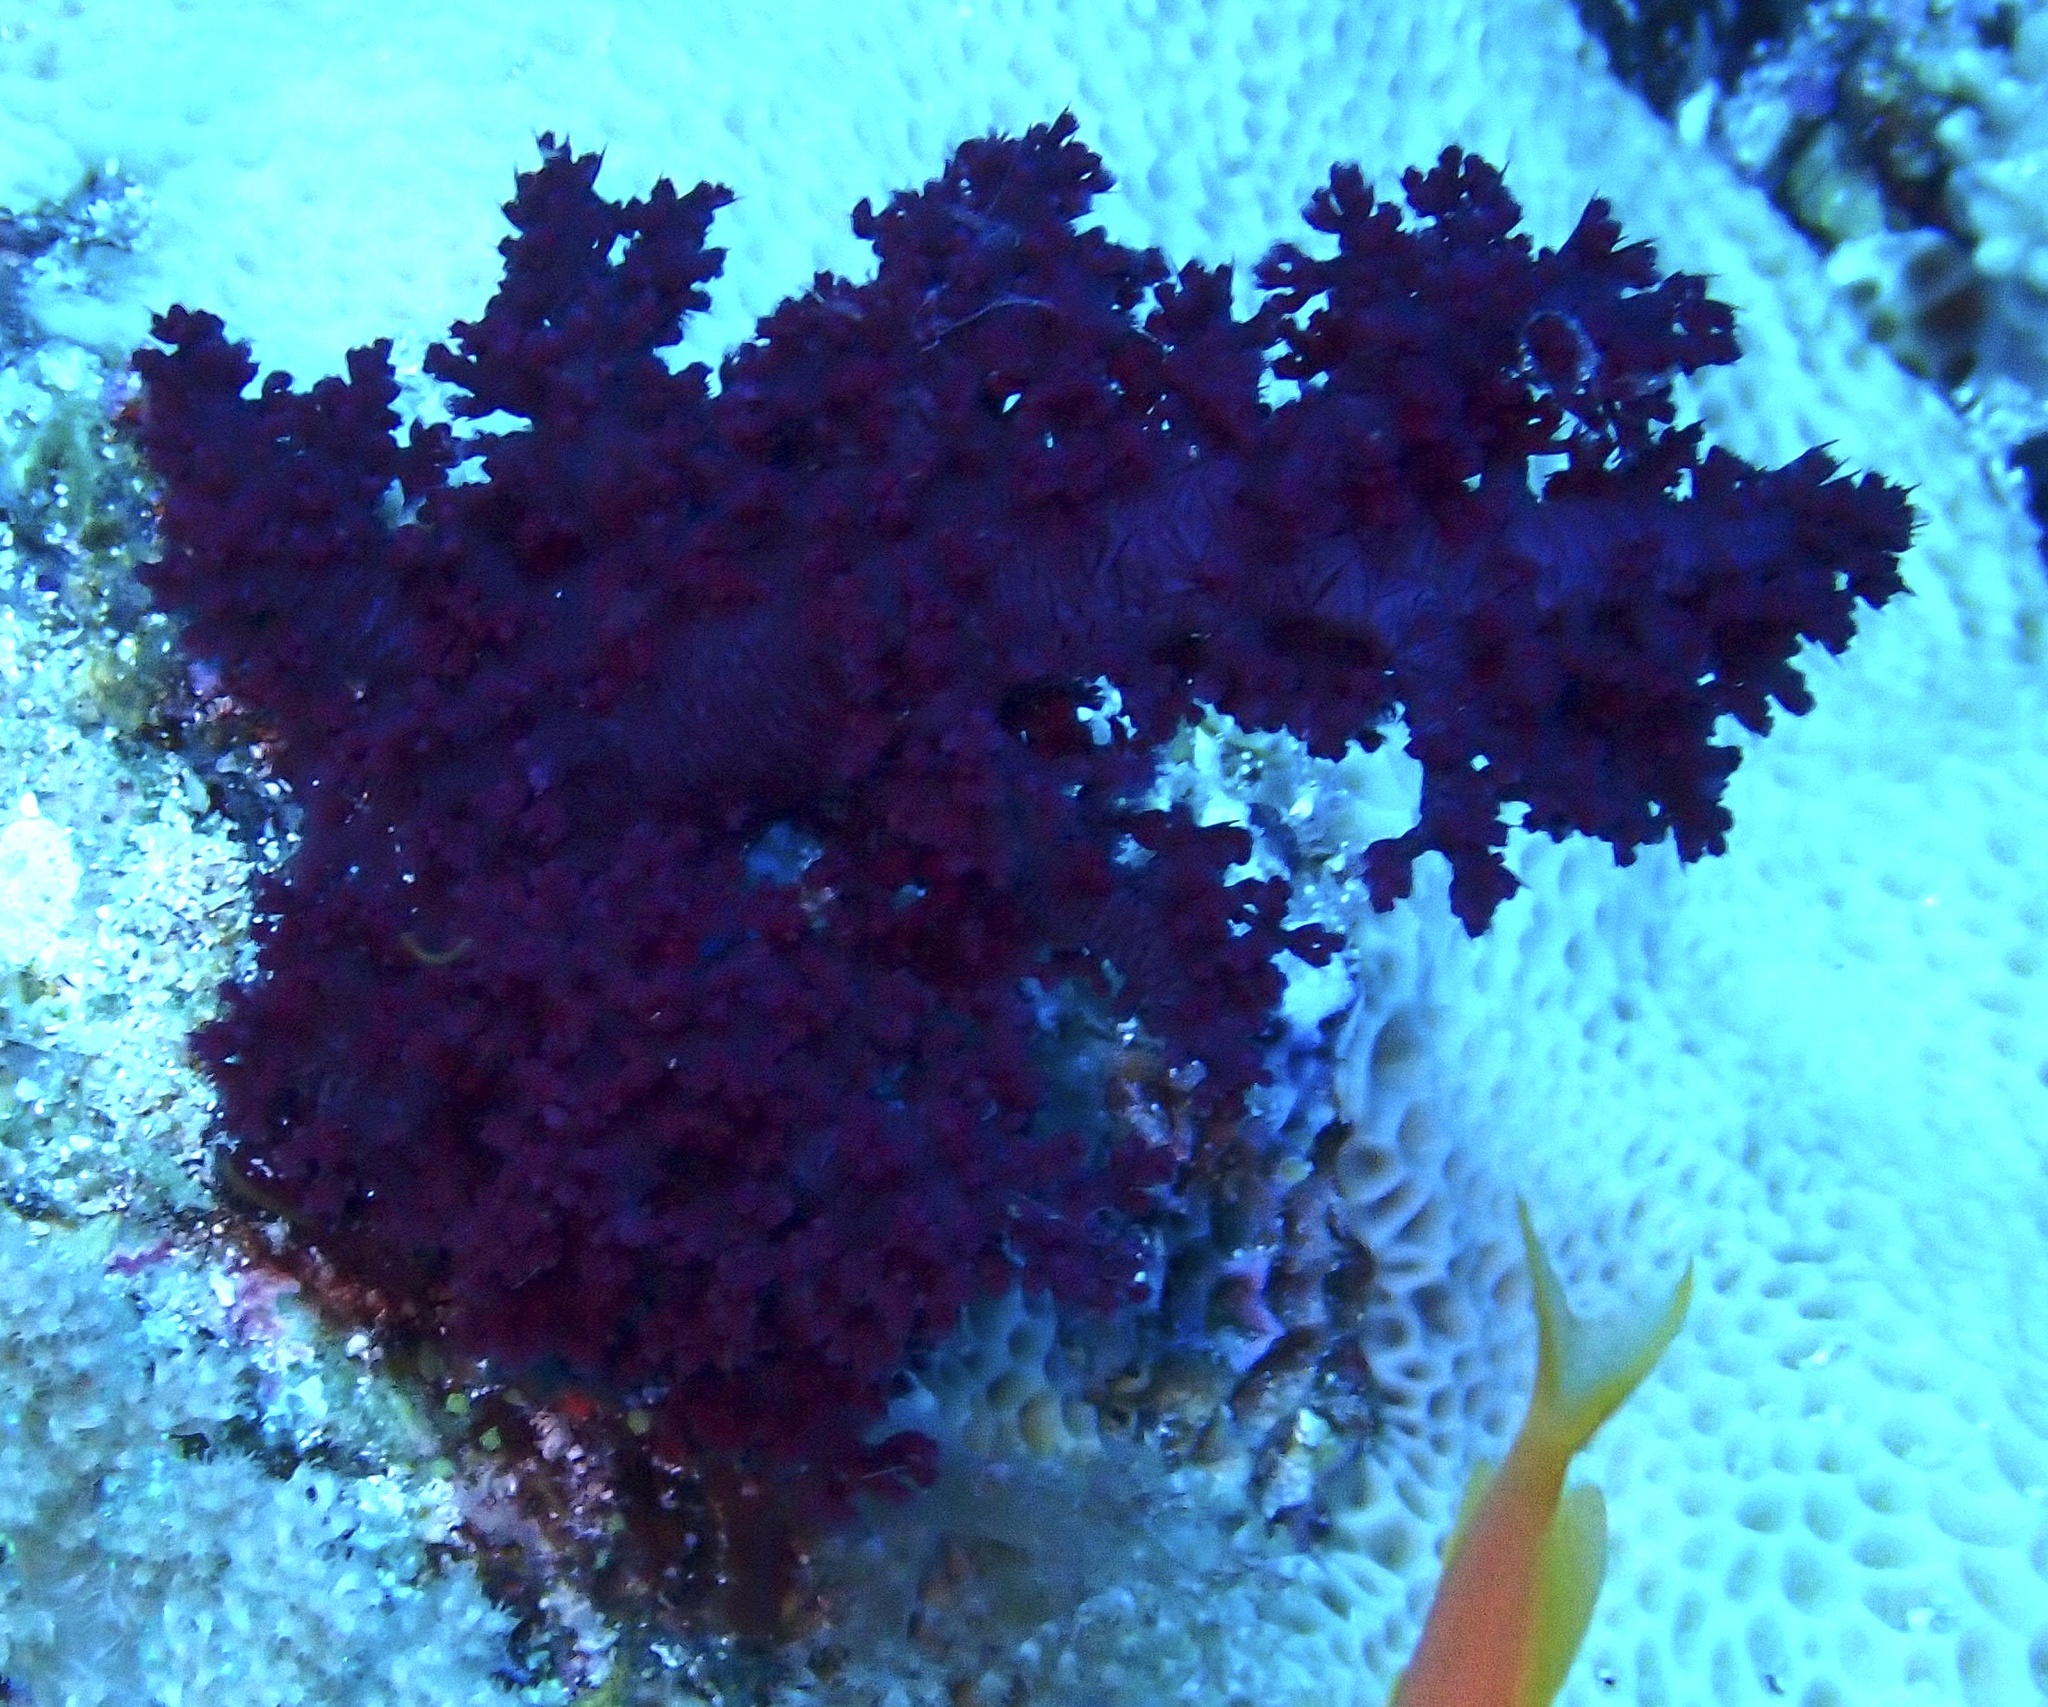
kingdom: Animalia
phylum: Cnidaria
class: Anthozoa
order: Malacalcyonacea
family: Nephtheidae
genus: Dendronephthya
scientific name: Dendronephthya hemprichi
